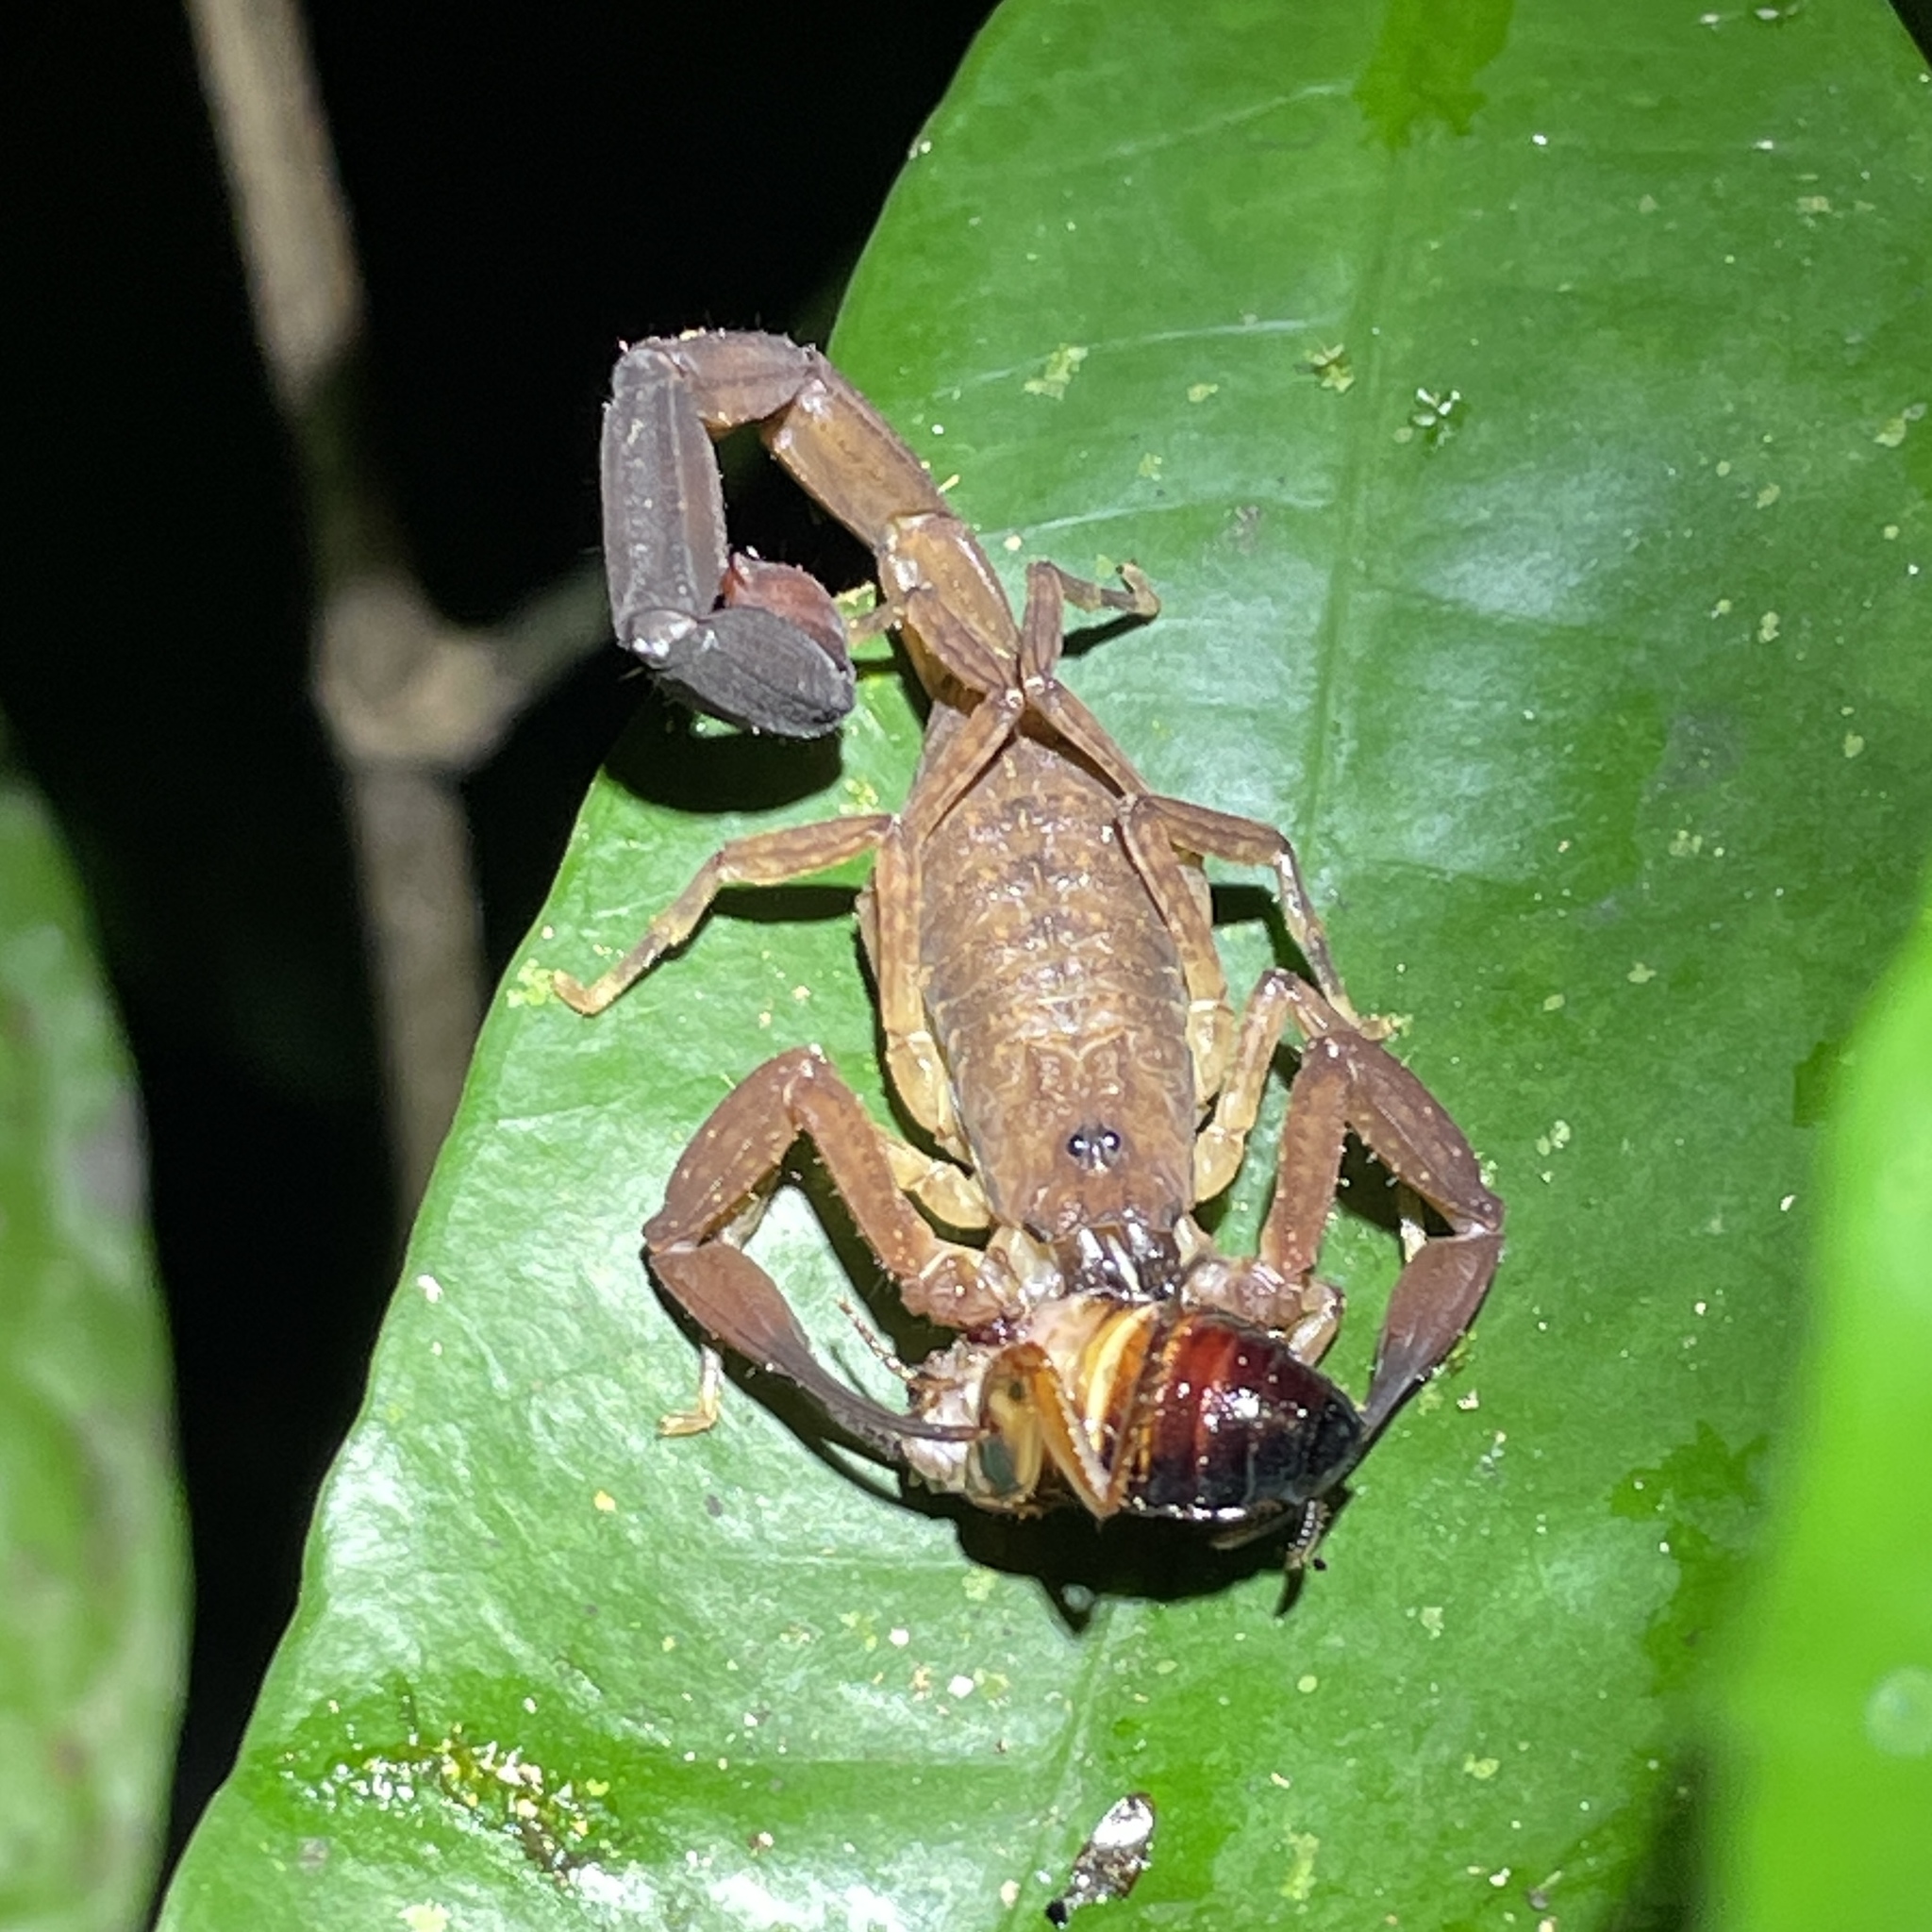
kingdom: Animalia
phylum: Arthropoda
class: Arachnida
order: Scorpiones
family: Buthidae
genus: Tityus
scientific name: Tityus trinitatis
